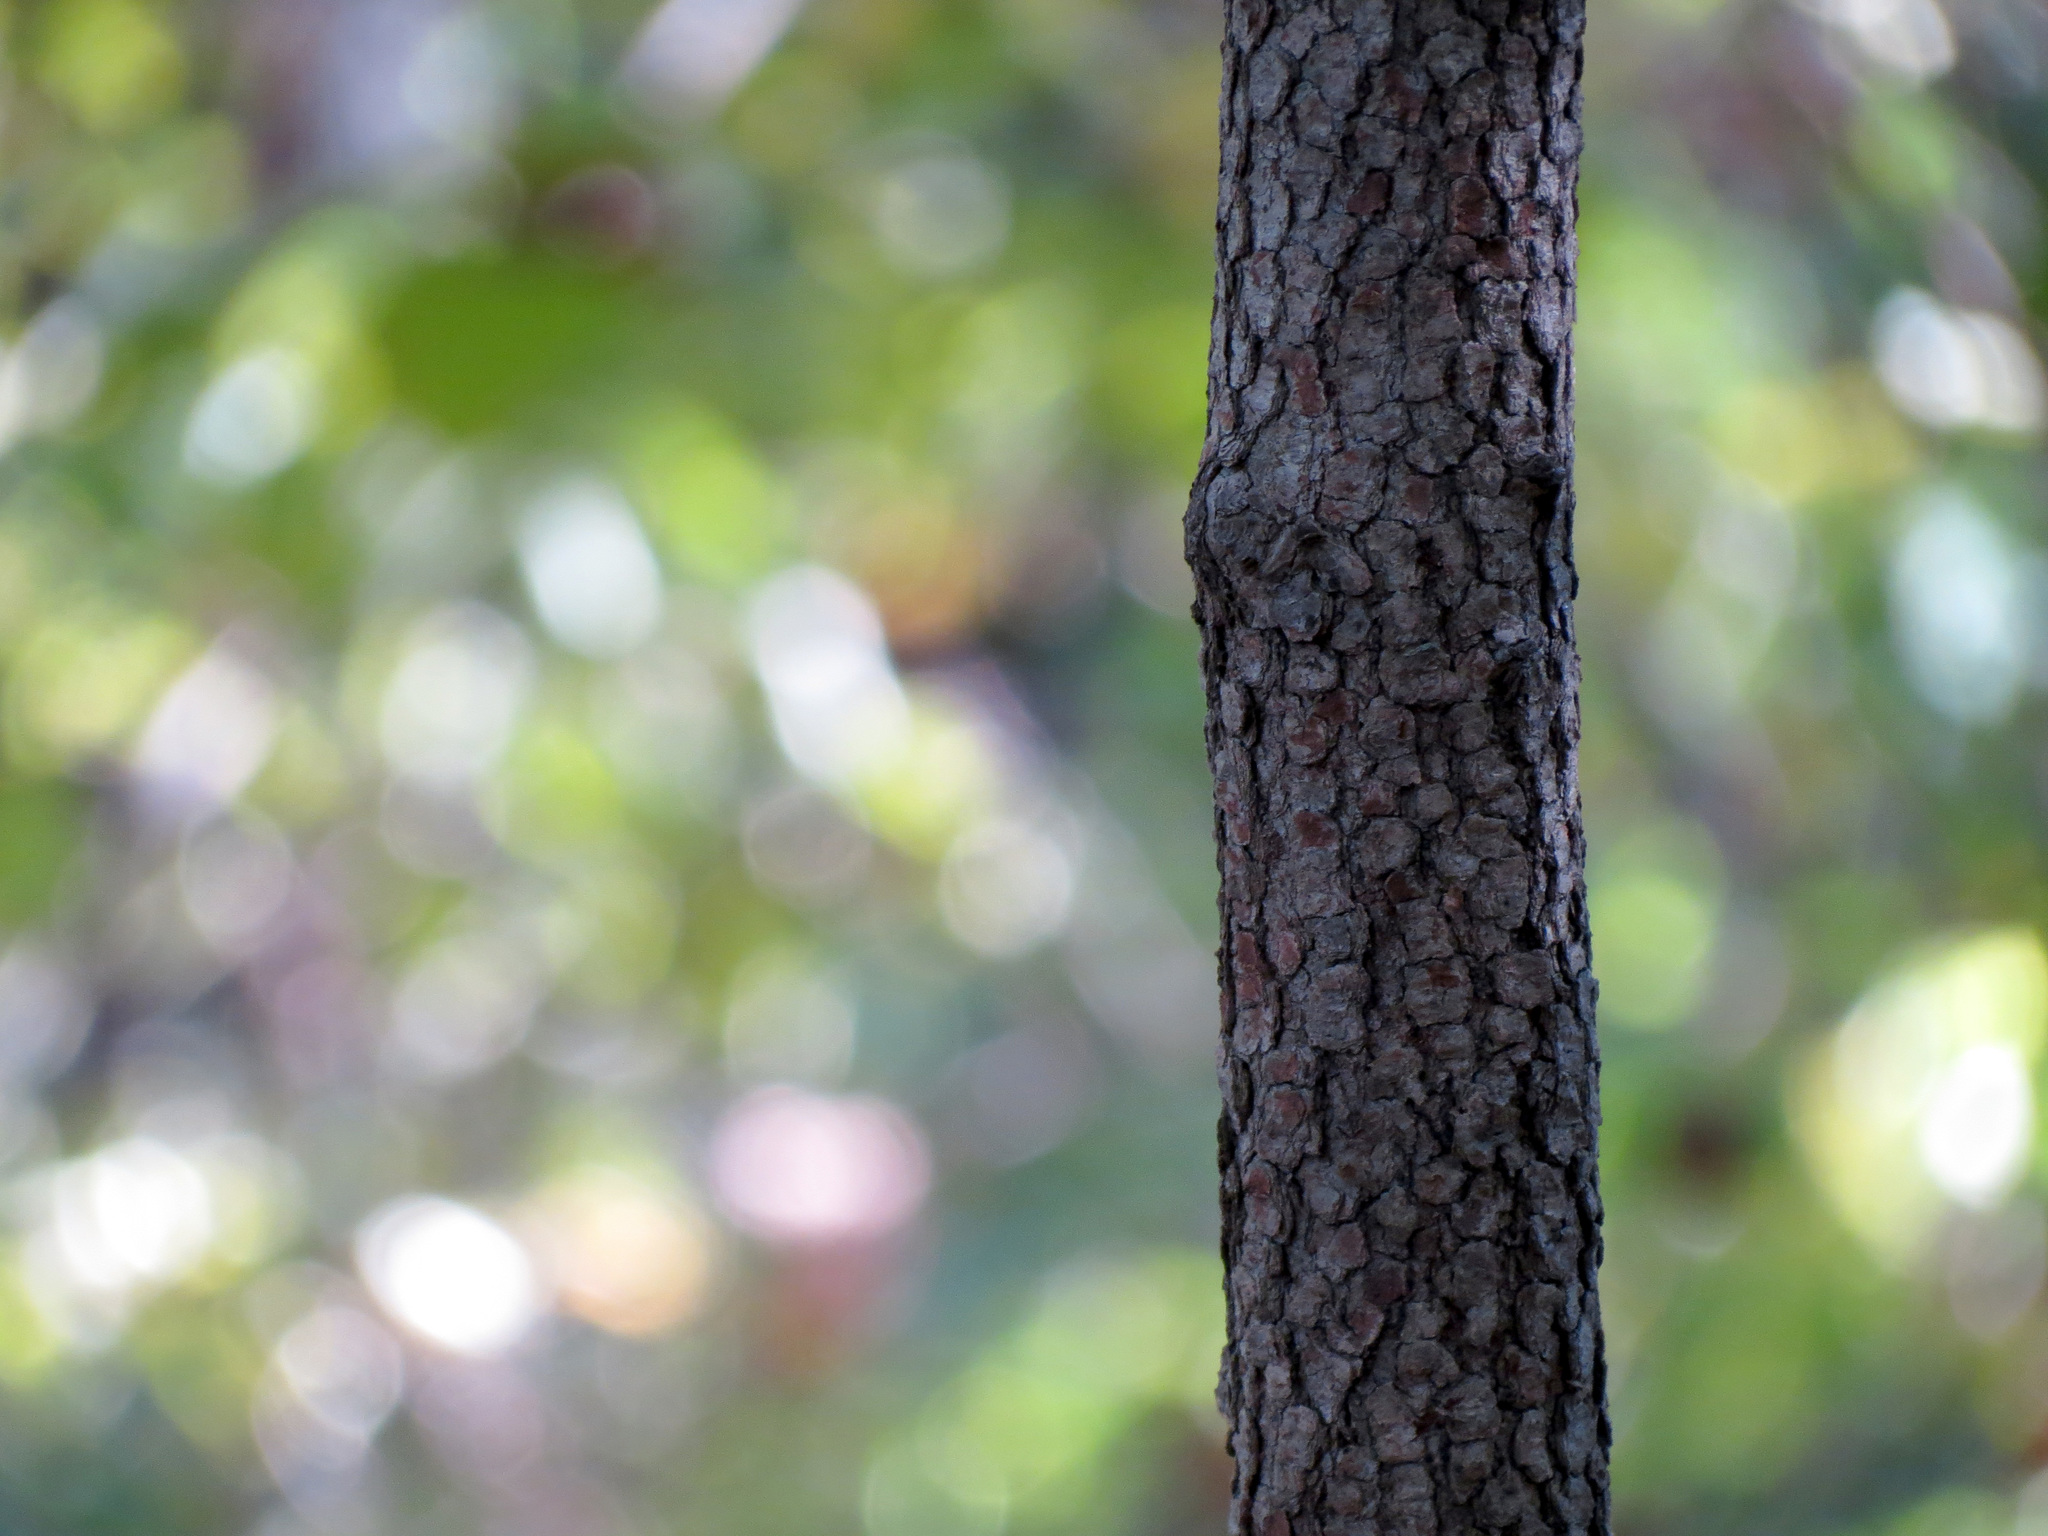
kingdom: Plantae
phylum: Tracheophyta
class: Magnoliopsida
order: Cornales
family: Nyssaceae
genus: Nyssa
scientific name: Nyssa sylvatica
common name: Black tupelo
